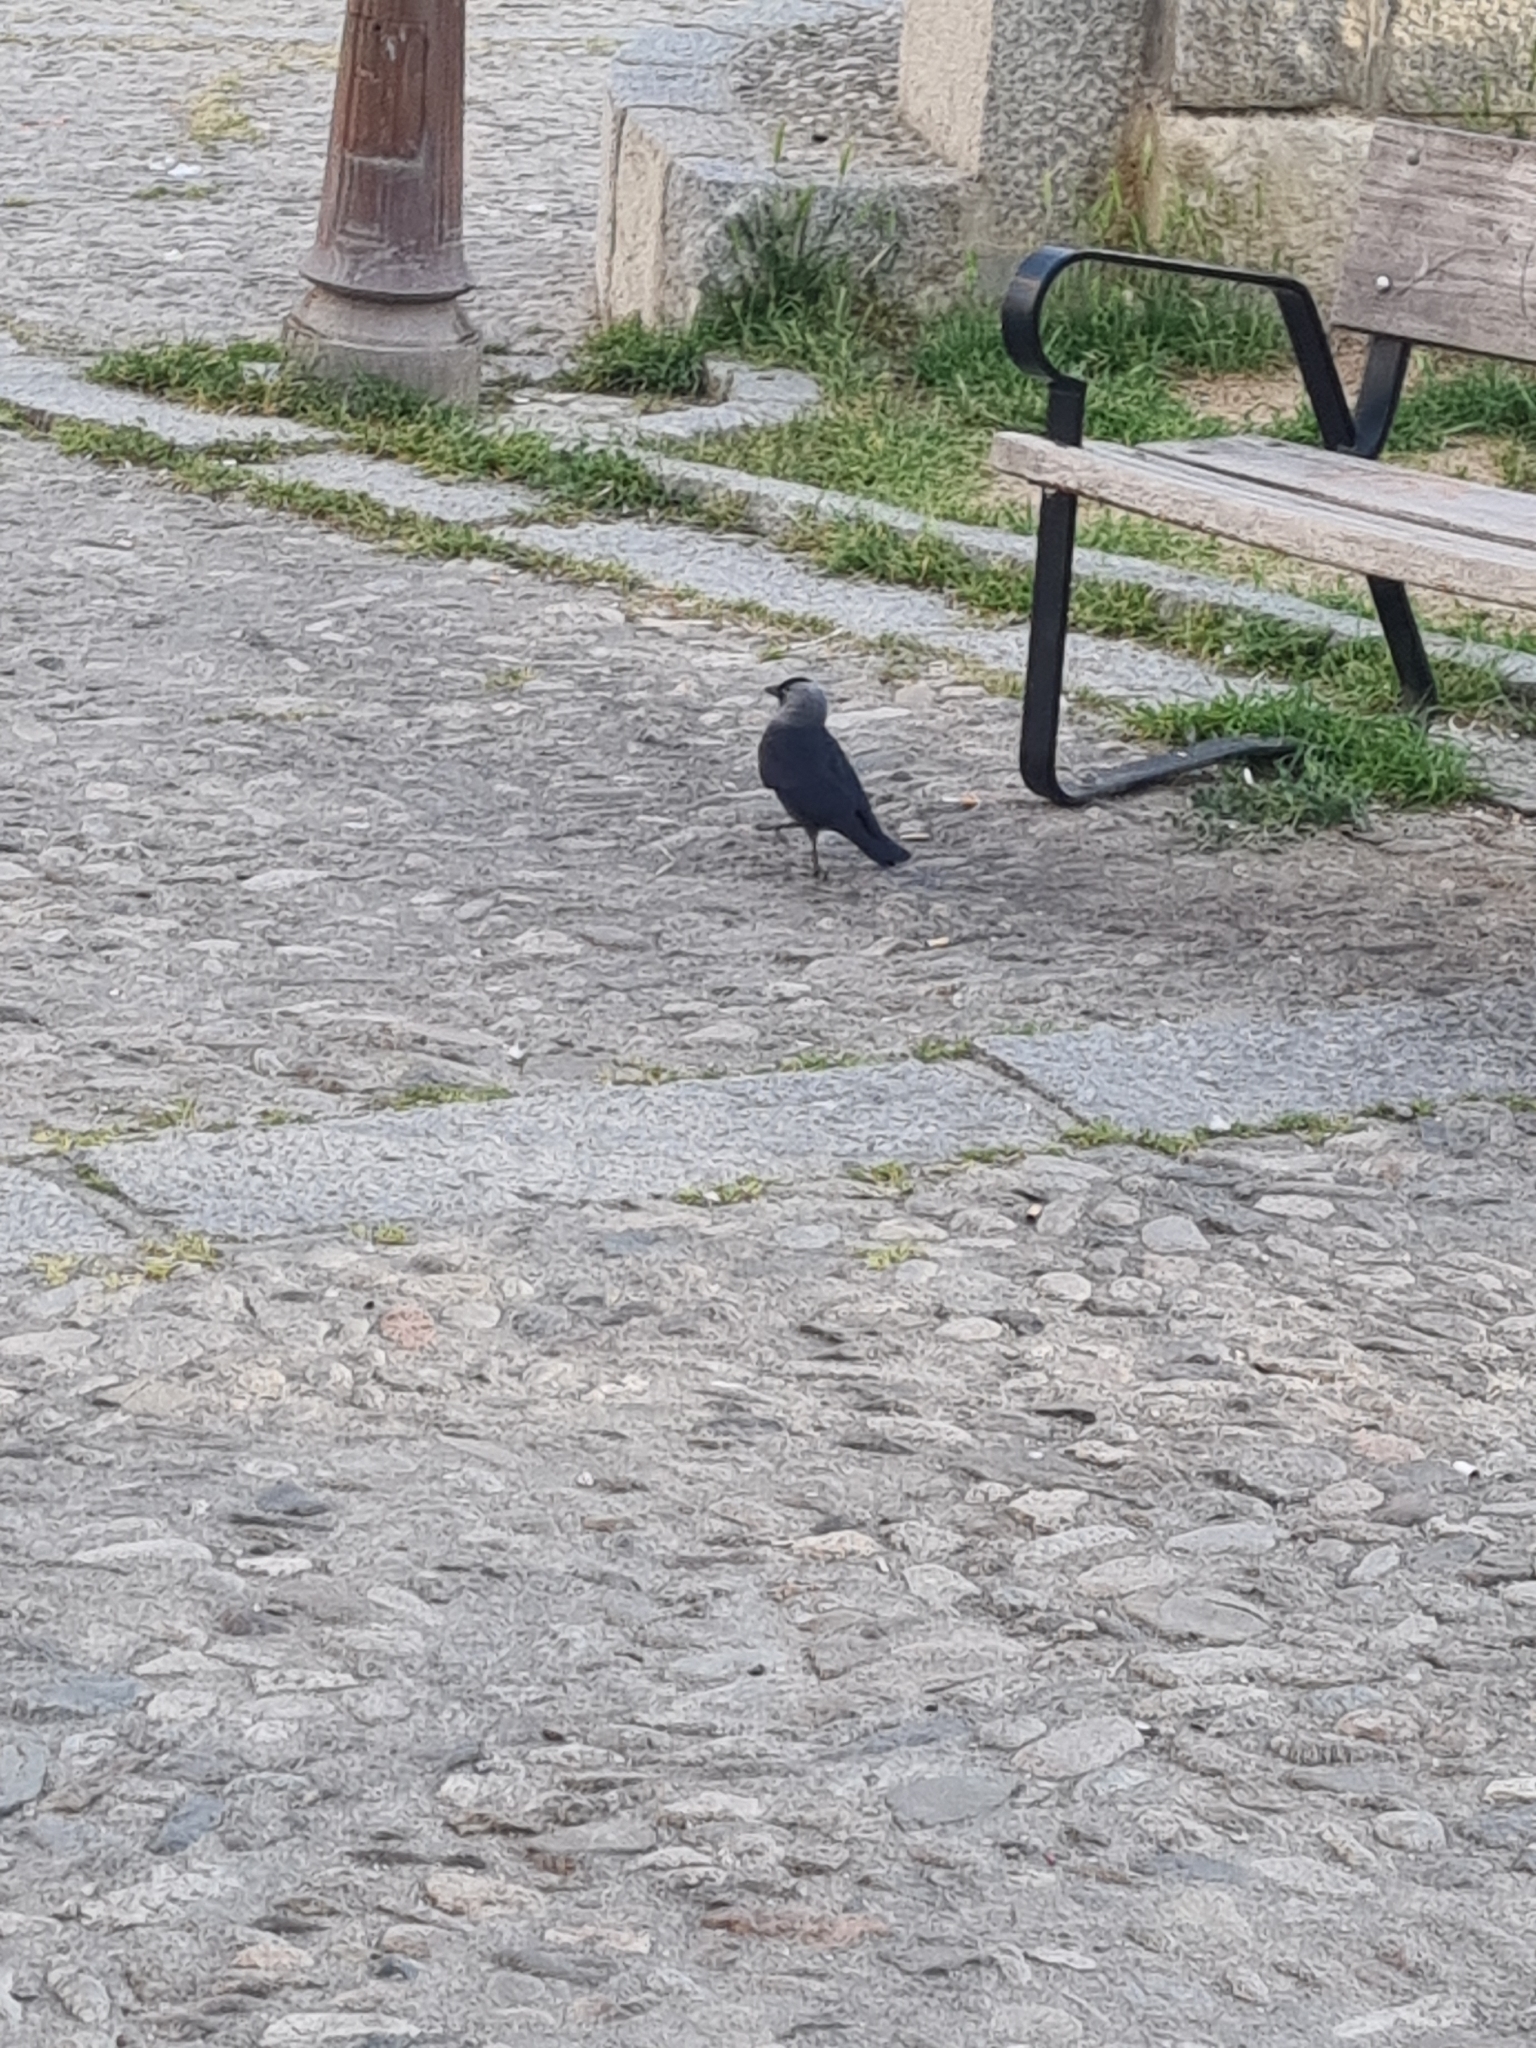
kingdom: Animalia
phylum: Chordata
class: Aves
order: Passeriformes
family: Corvidae
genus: Coloeus
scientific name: Coloeus monedula
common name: Western jackdaw
